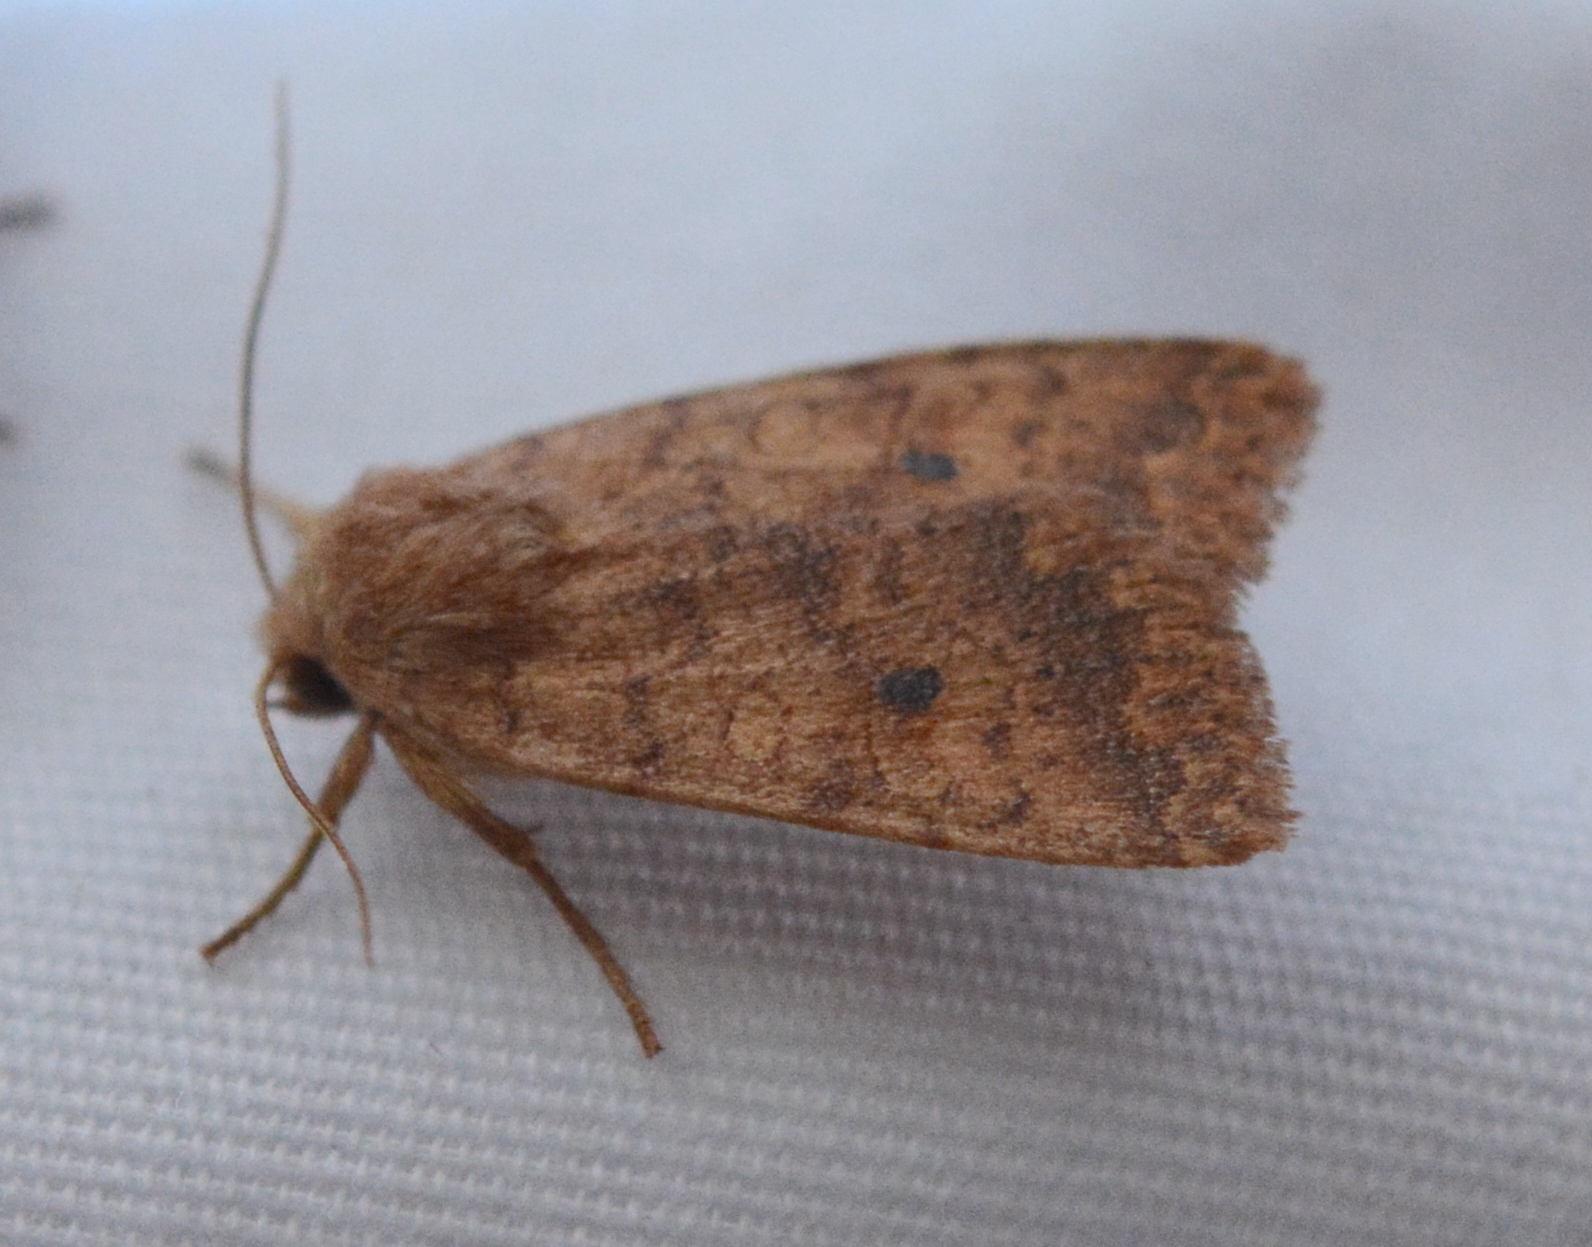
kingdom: Animalia
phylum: Arthropoda
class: Insecta
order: Lepidoptera
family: Noctuidae
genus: Agrochola
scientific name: Agrochola bicolorago
